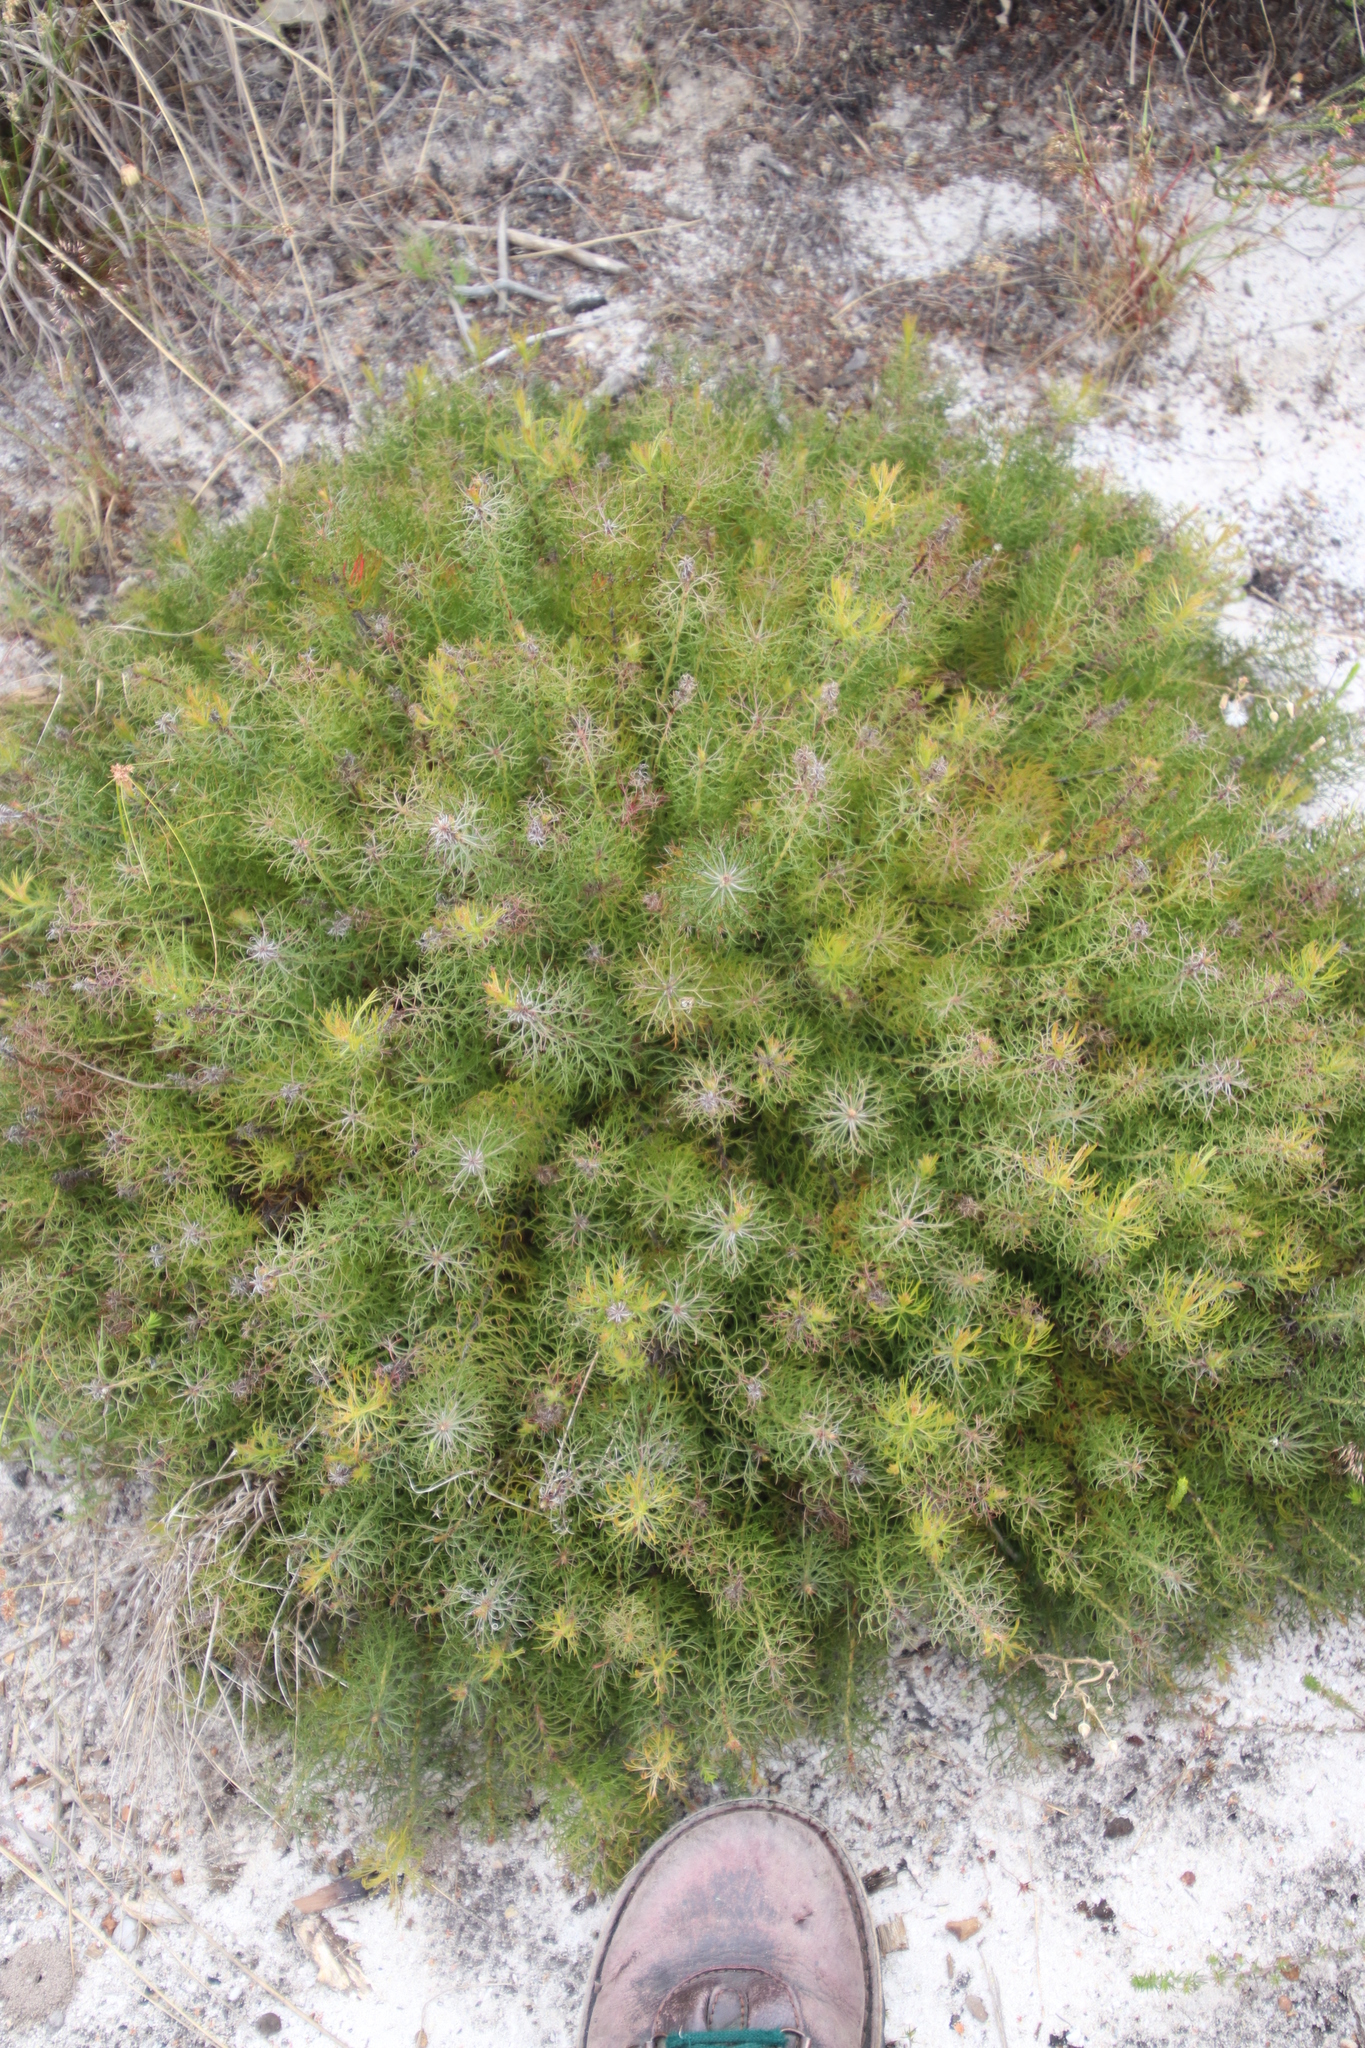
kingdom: Plantae
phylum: Tracheophyta
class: Magnoliopsida
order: Proteales
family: Proteaceae
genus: Serruria
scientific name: Serruria cyanoides
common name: Wynberg spiderhead
